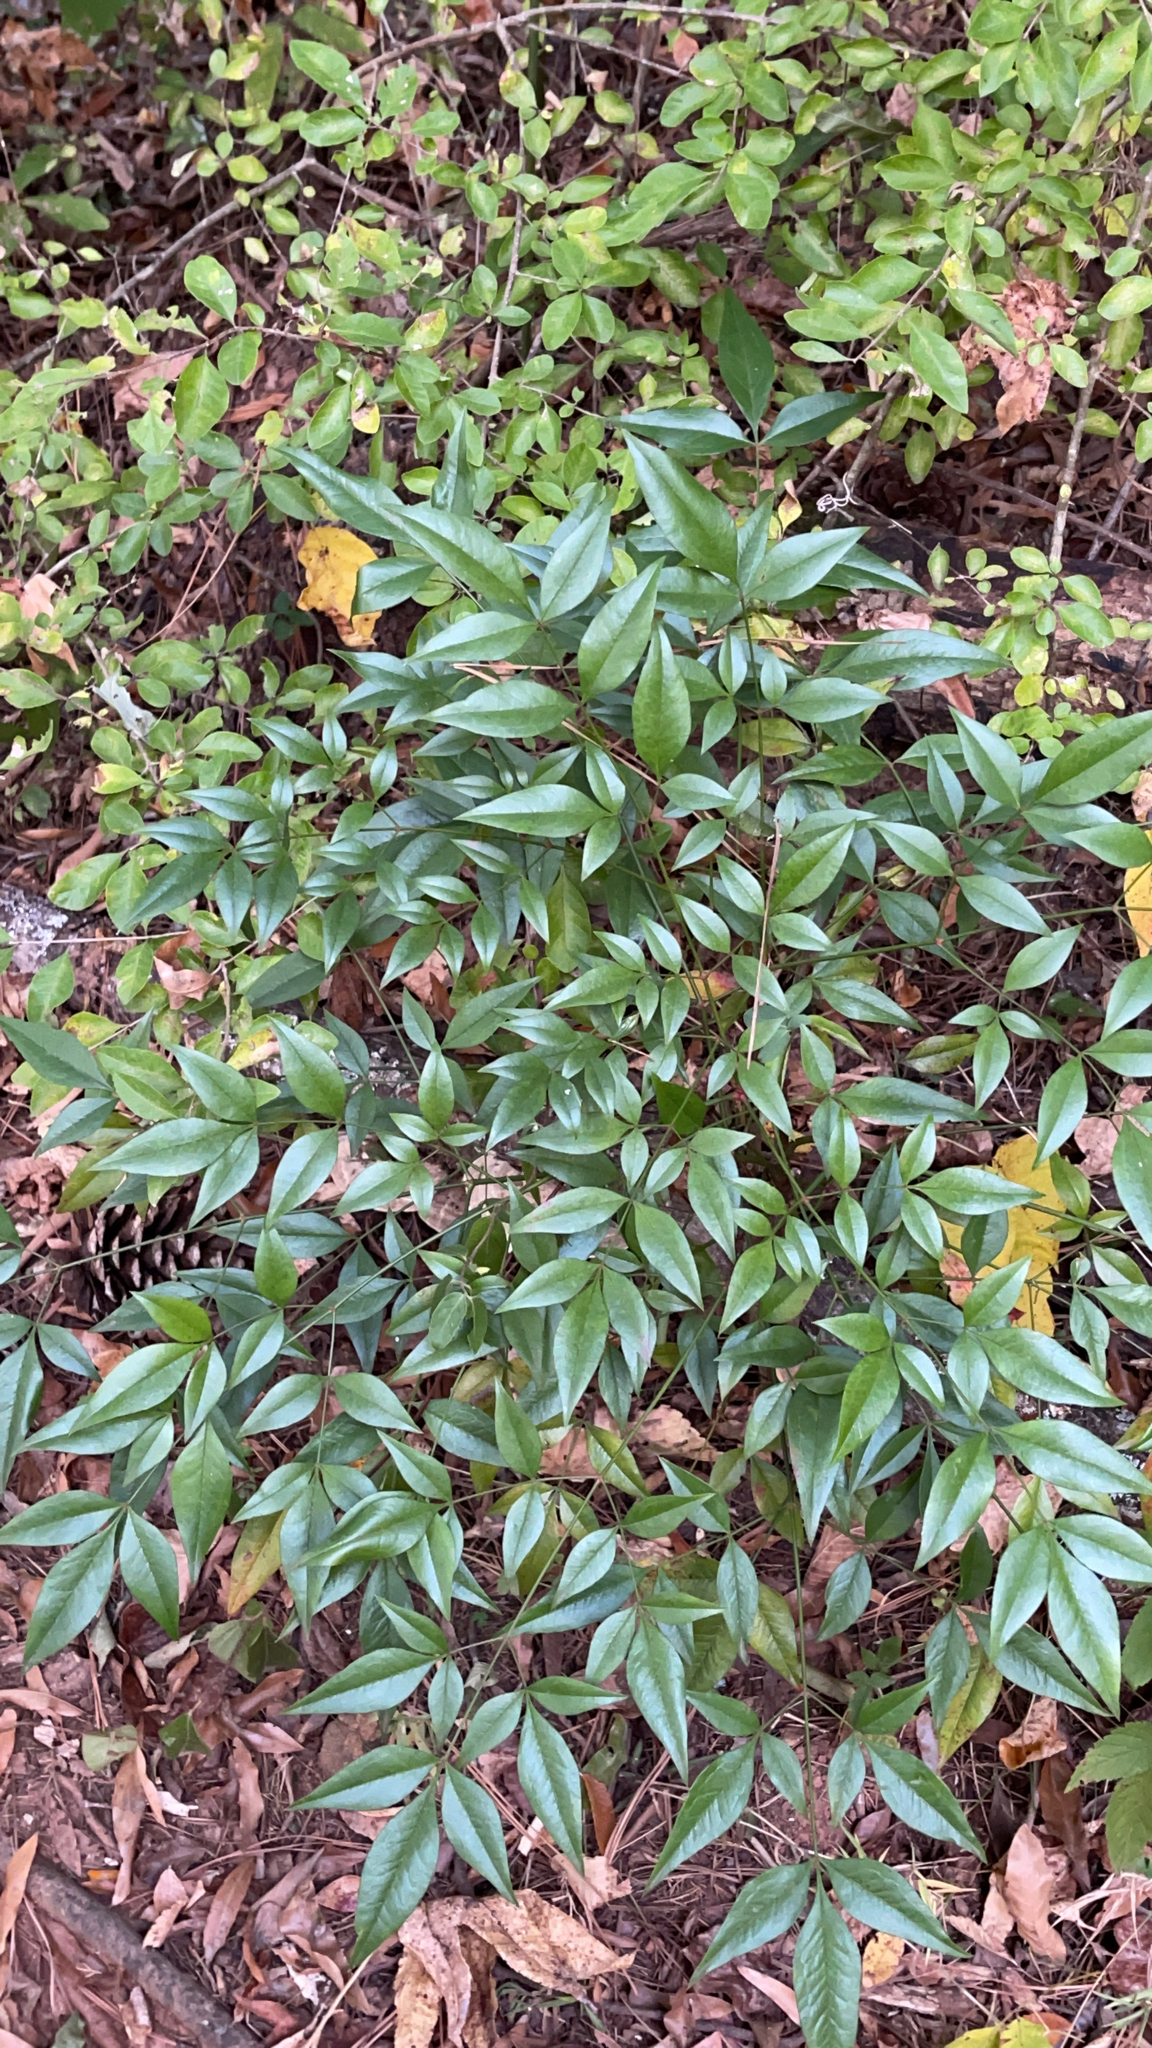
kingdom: Plantae
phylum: Tracheophyta
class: Magnoliopsida
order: Ranunculales
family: Berberidaceae
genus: Nandina
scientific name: Nandina domestica
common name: Sacred bamboo
